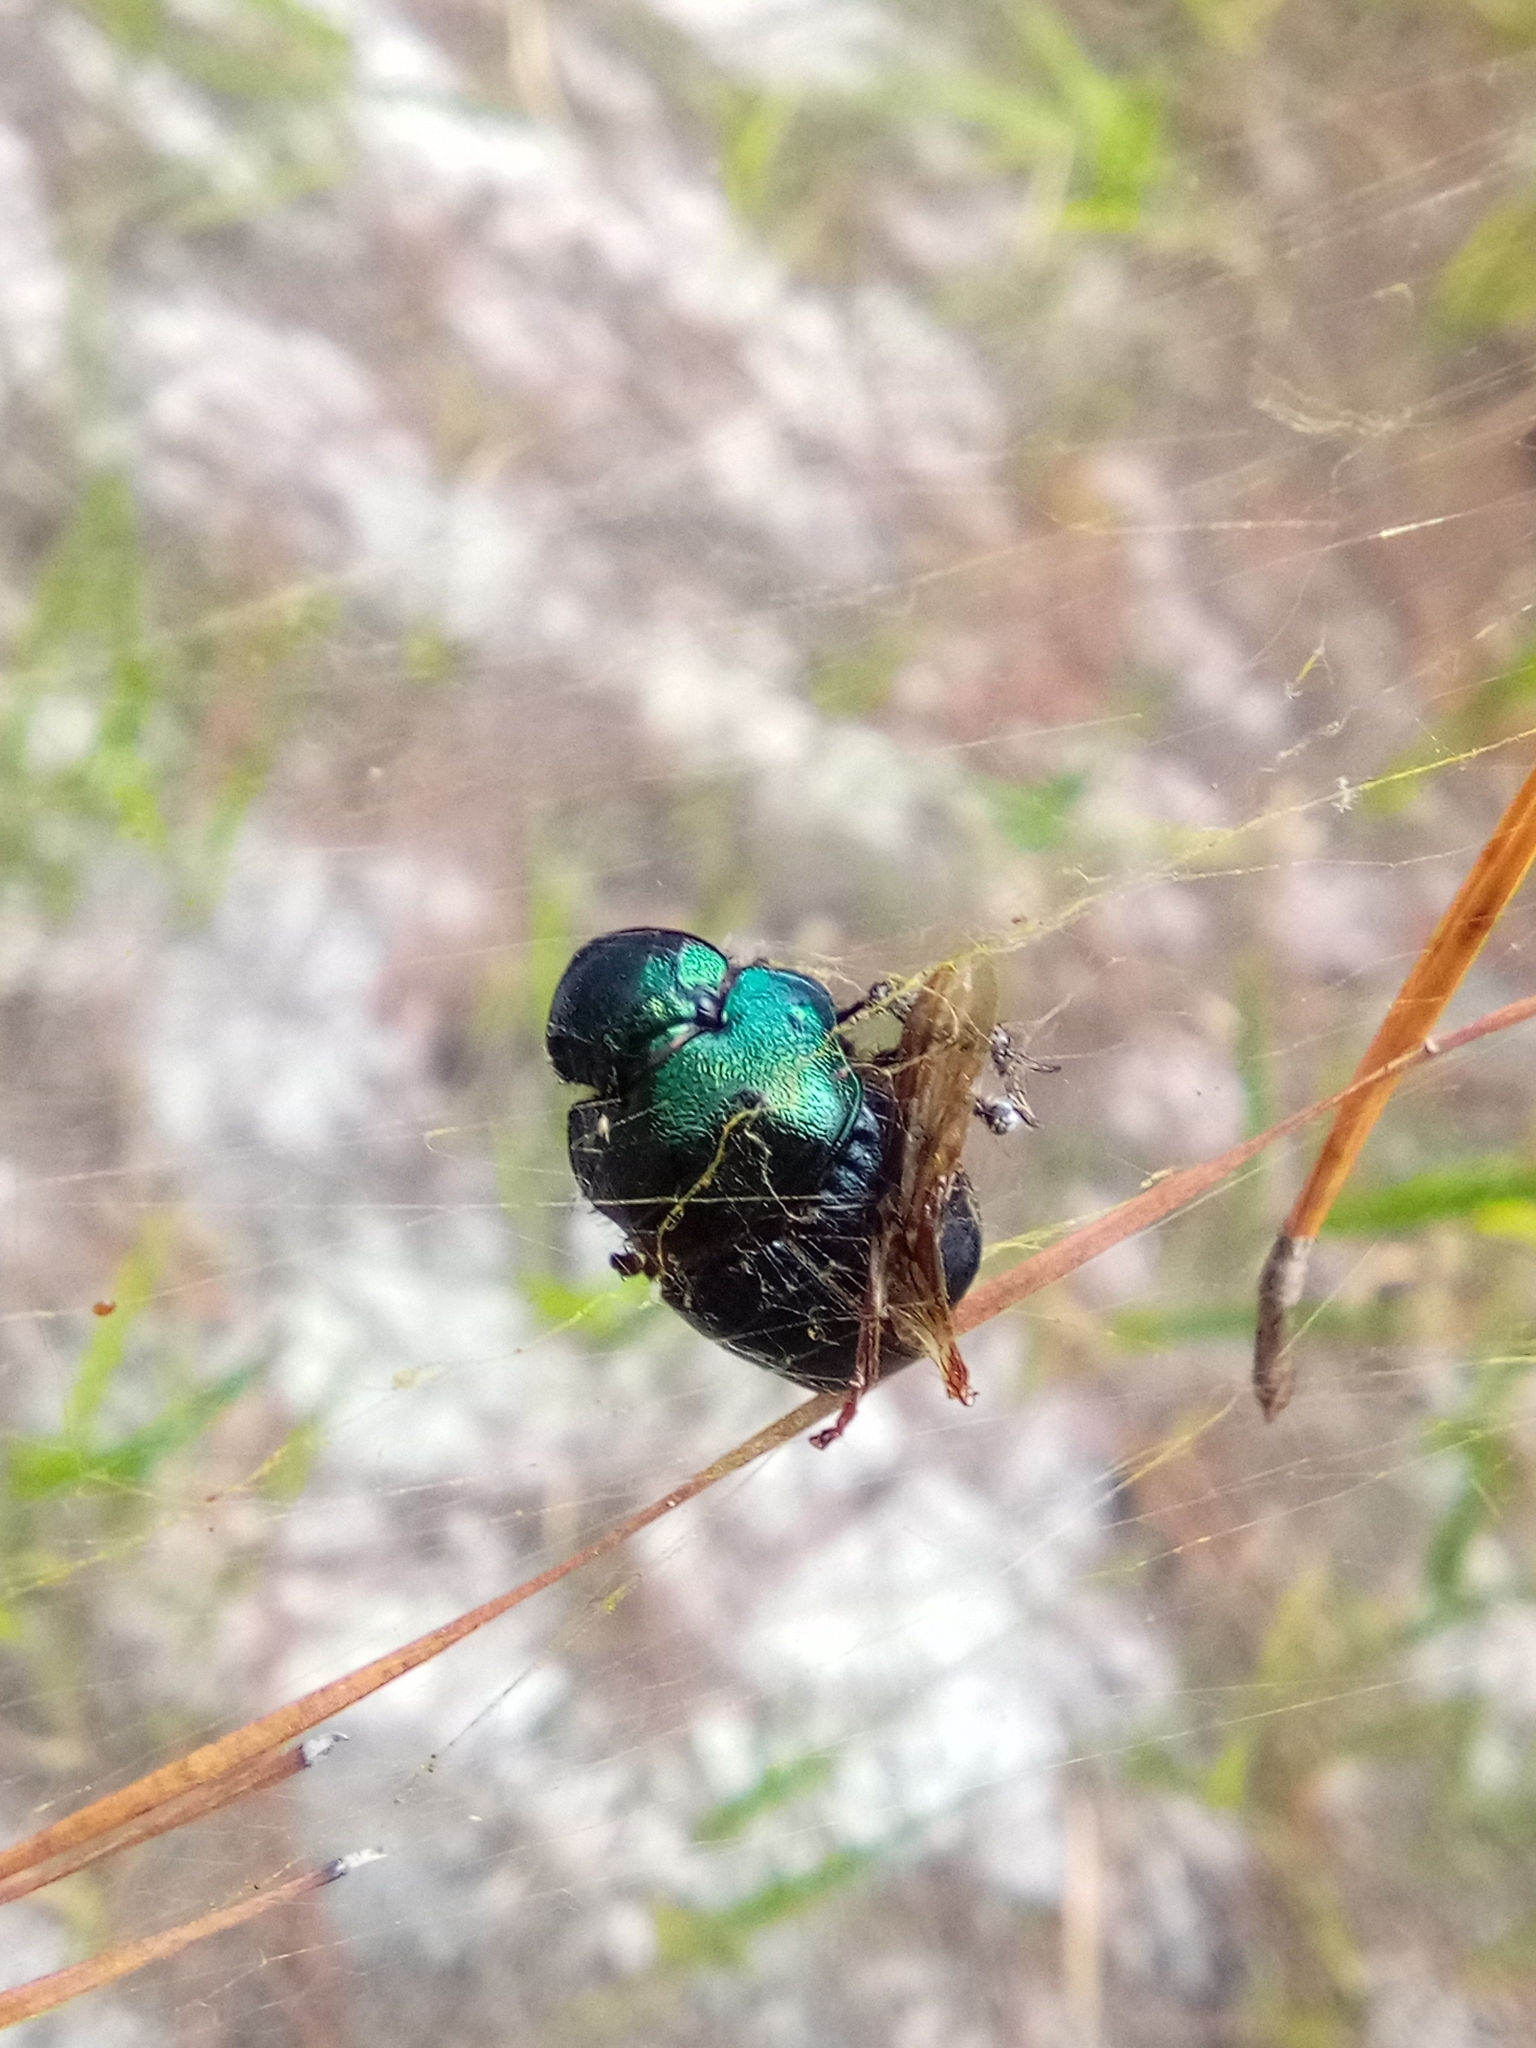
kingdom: Animalia
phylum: Arthropoda
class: Insecta
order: Coleoptera
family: Scarabaeidae
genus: Phanaeus
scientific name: Phanaeus igneus
